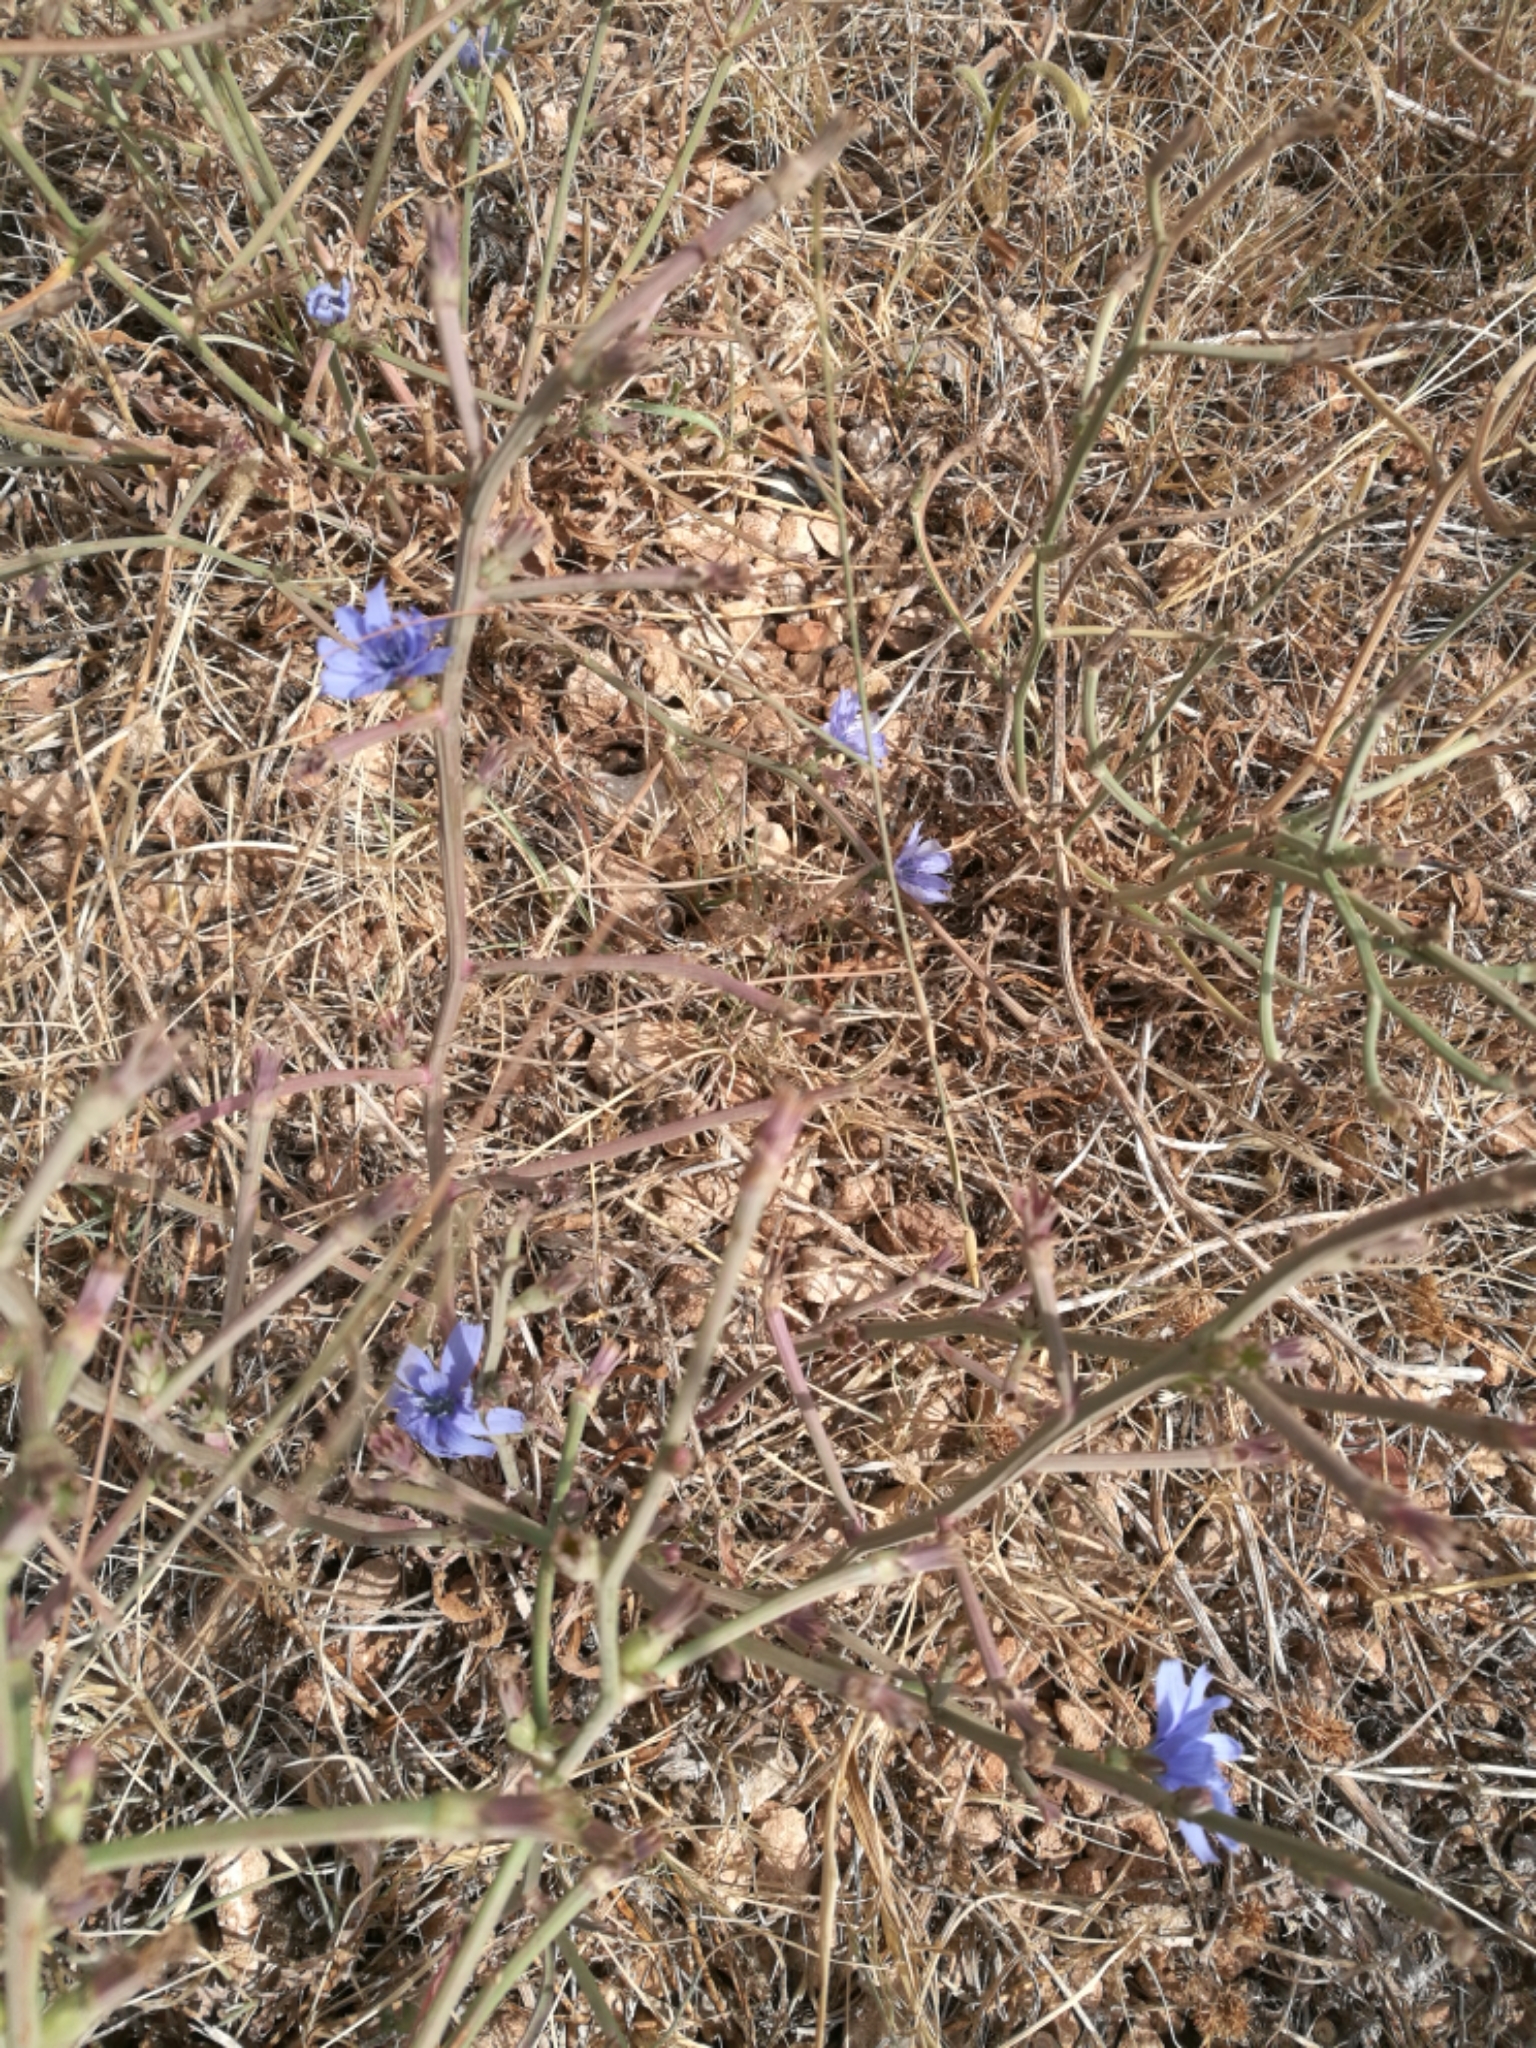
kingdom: Plantae
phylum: Tracheophyta
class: Magnoliopsida
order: Asterales
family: Asteraceae
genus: Cichorium
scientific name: Cichorium intybus
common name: Chicory
